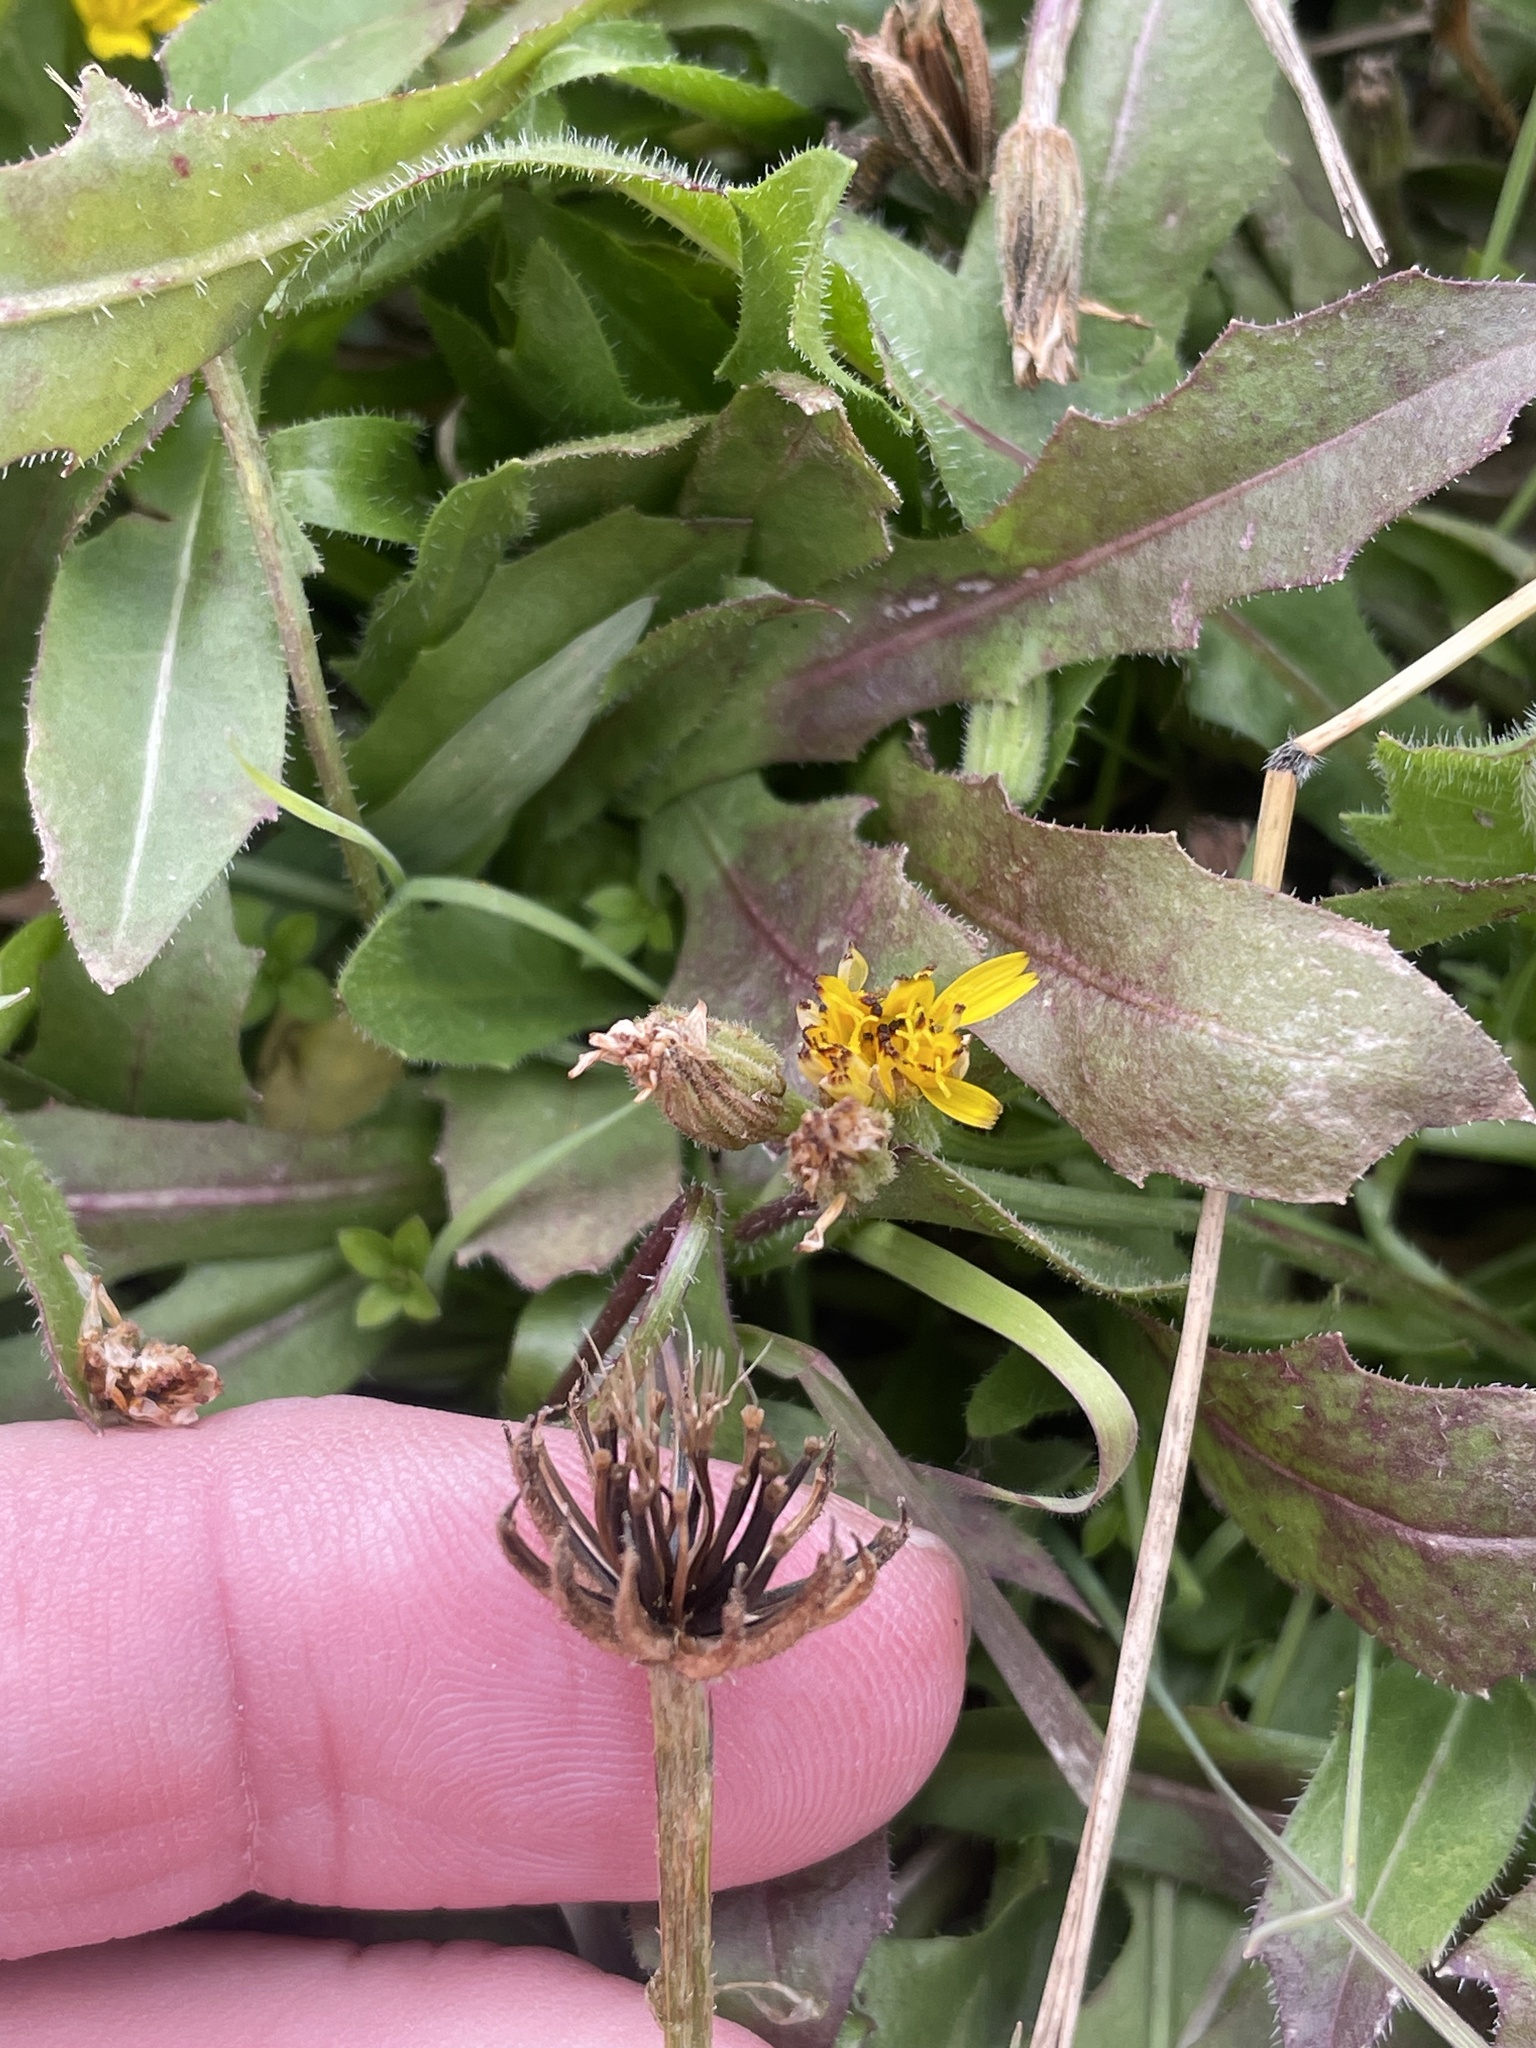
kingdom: Plantae
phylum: Tracheophyta
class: Magnoliopsida
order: Asterales
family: Asteraceae
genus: Hedypnois
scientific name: Hedypnois rhagadioloides
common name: Cretan weed
